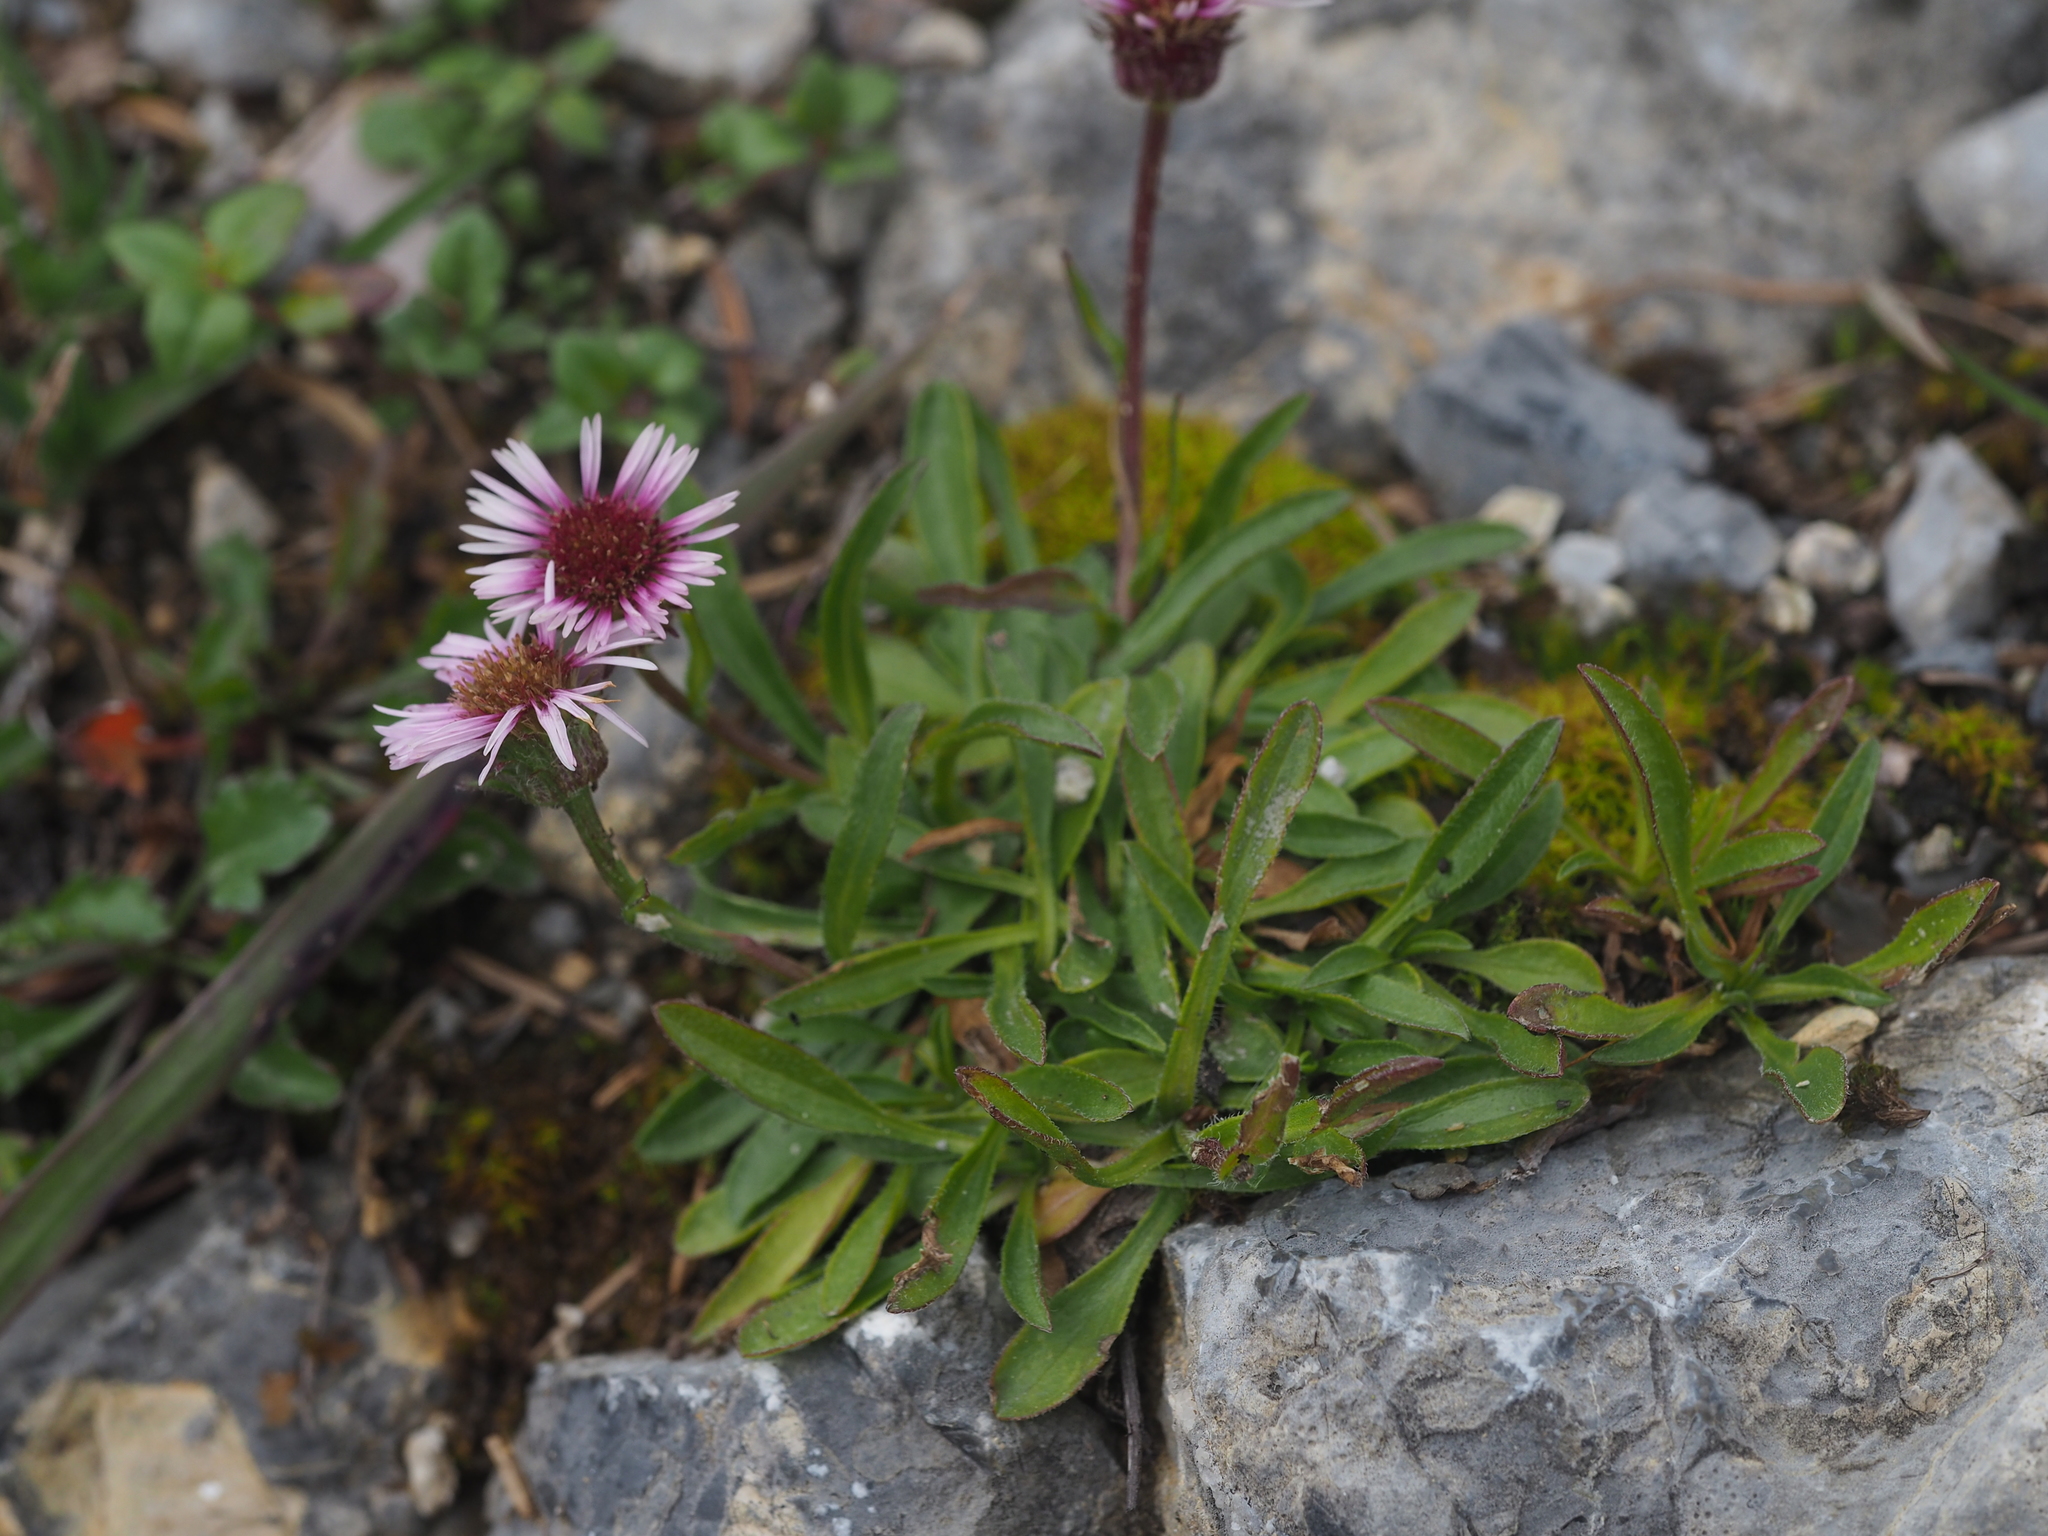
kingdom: Plantae
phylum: Tracheophyta
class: Magnoliopsida
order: Asterales
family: Asteraceae
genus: Erigeron
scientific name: Erigeron glabratus
